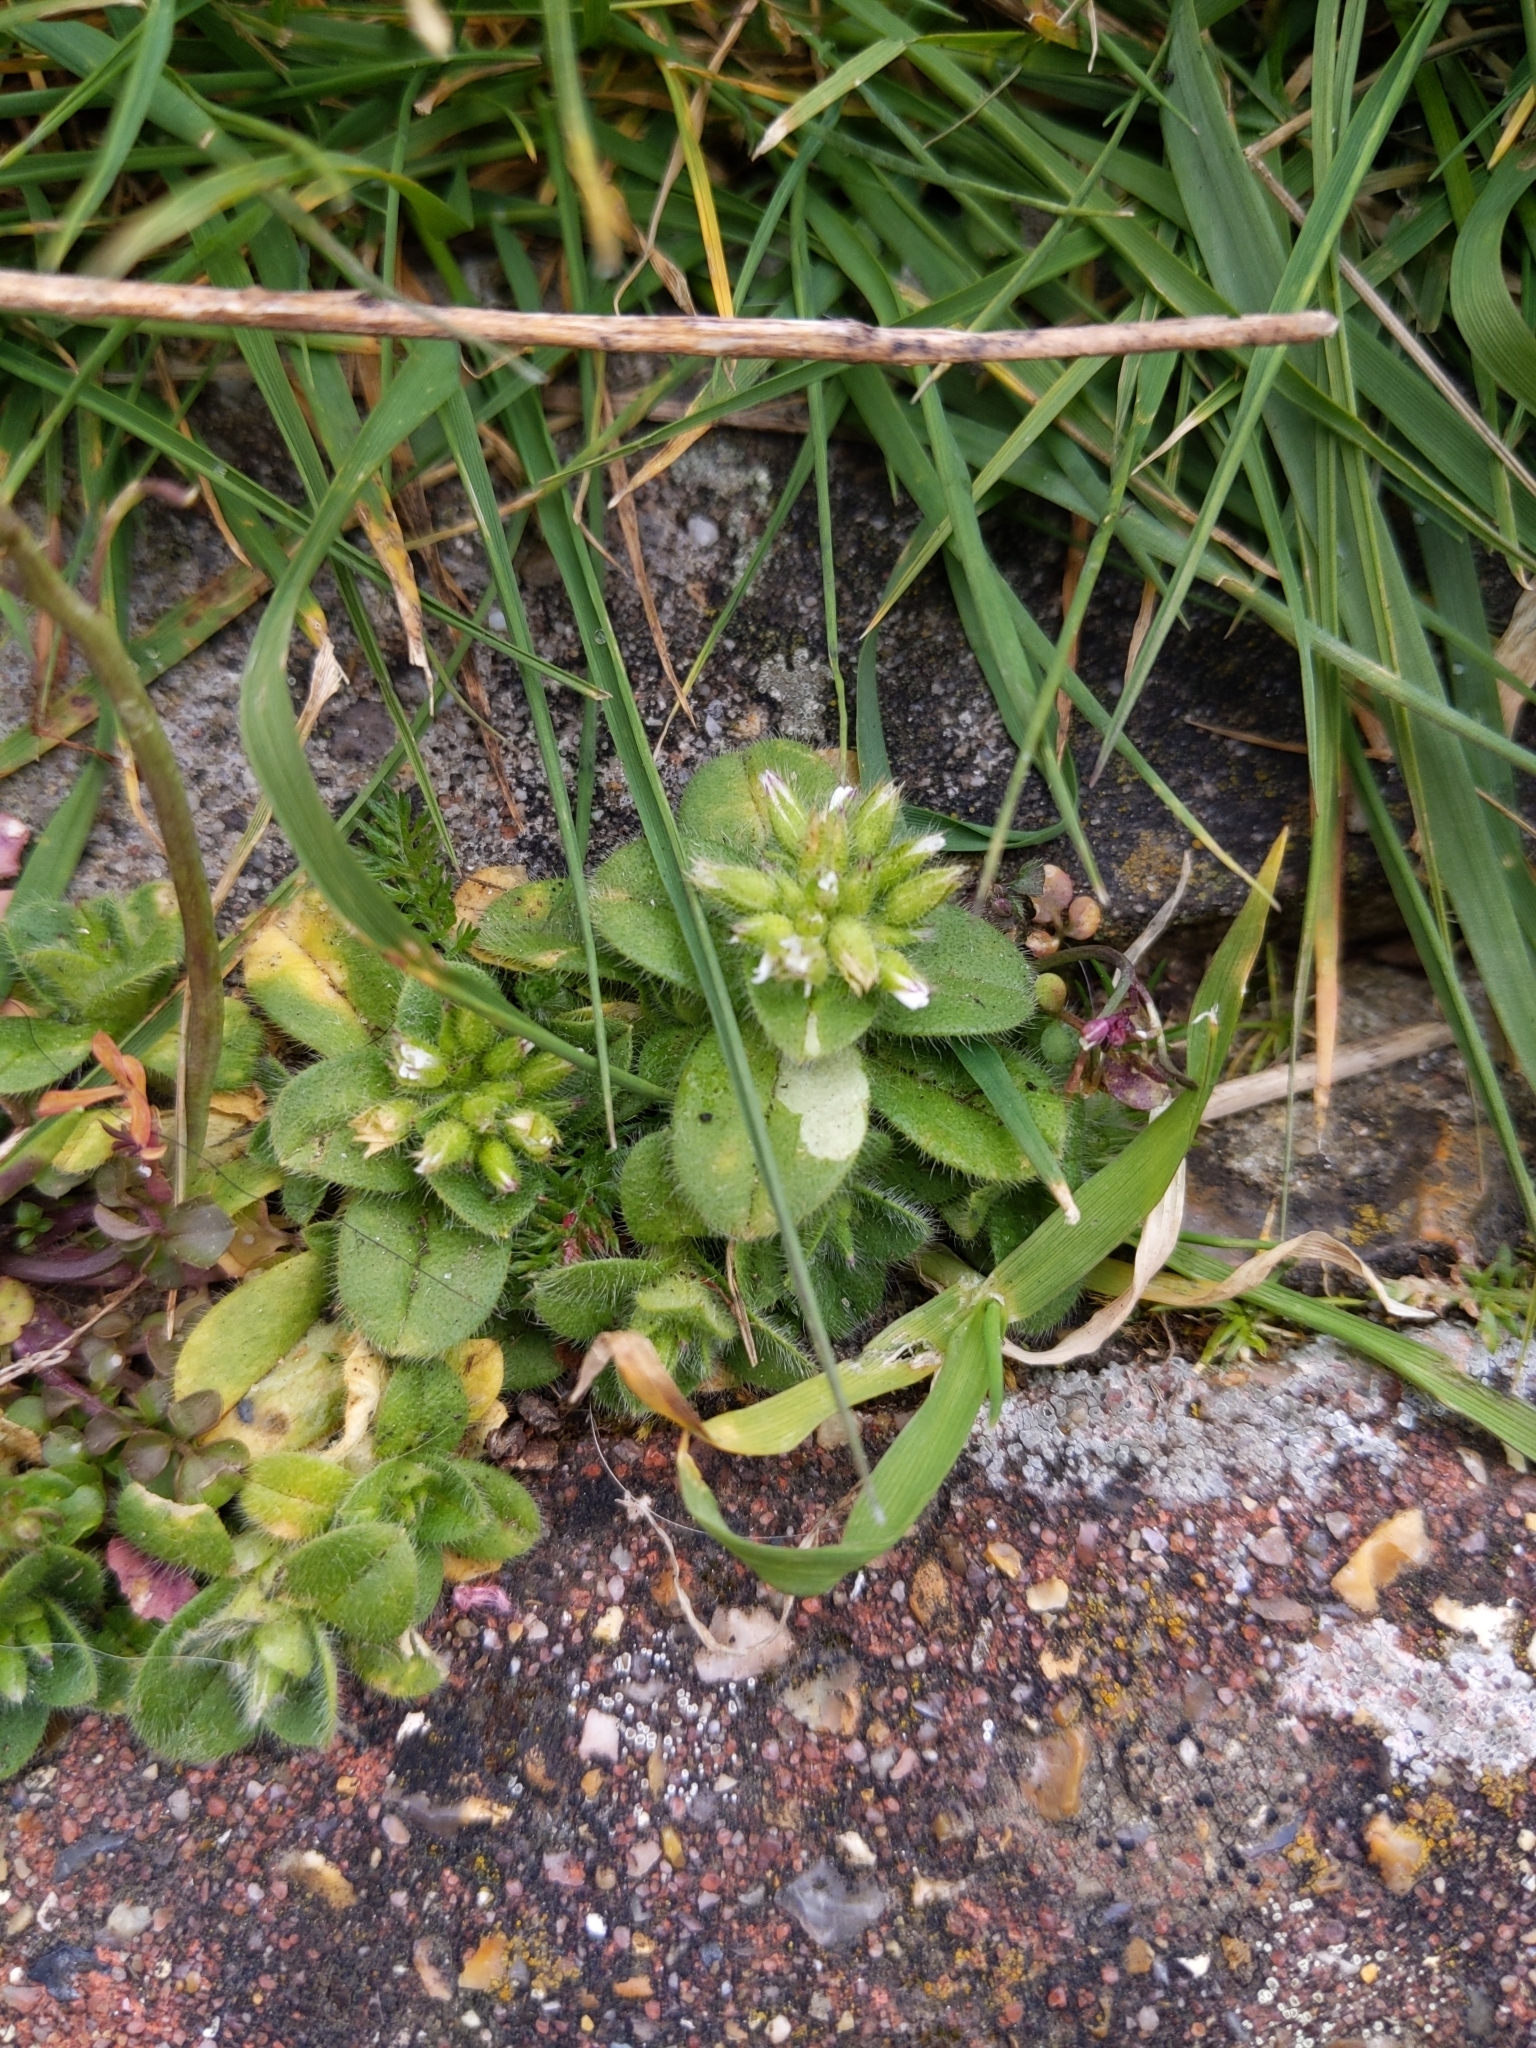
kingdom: Plantae
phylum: Tracheophyta
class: Magnoliopsida
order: Caryophyllales
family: Caryophyllaceae
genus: Cerastium
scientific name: Cerastium glomeratum
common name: Sticky chickweed
